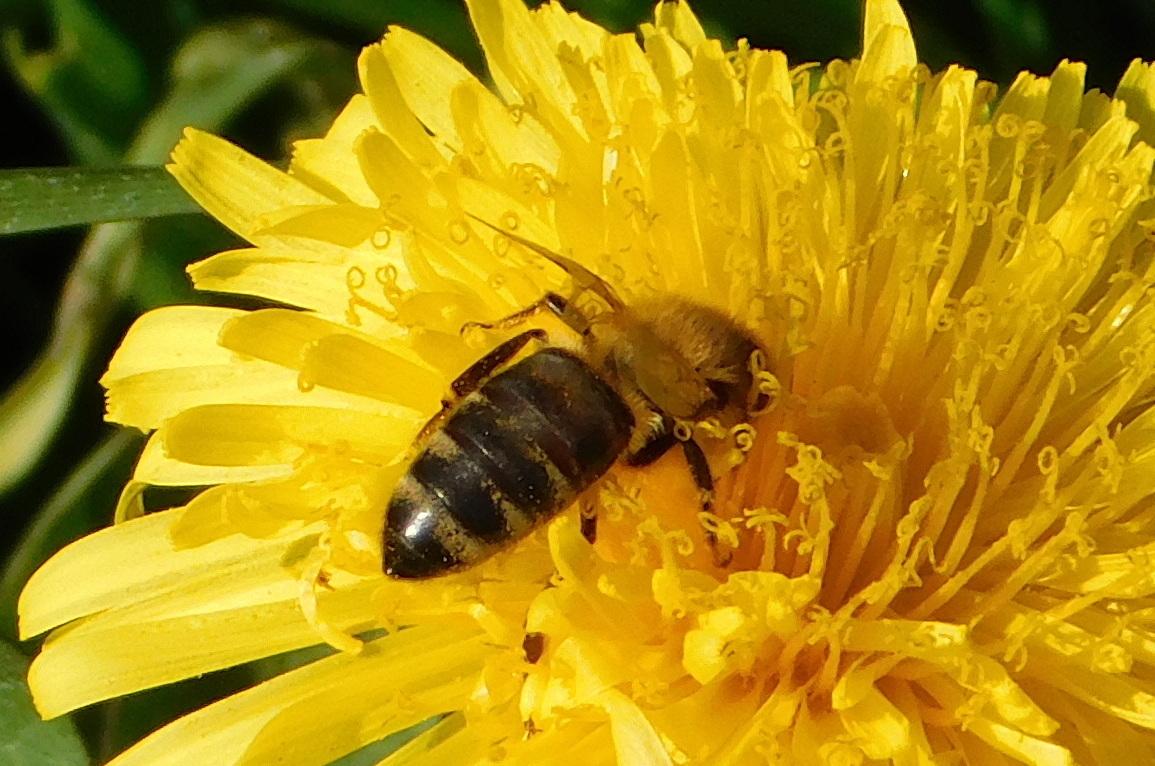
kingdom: Animalia
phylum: Arthropoda
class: Insecta
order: Hymenoptera
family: Apidae
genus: Apis
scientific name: Apis mellifera
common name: Honey bee
